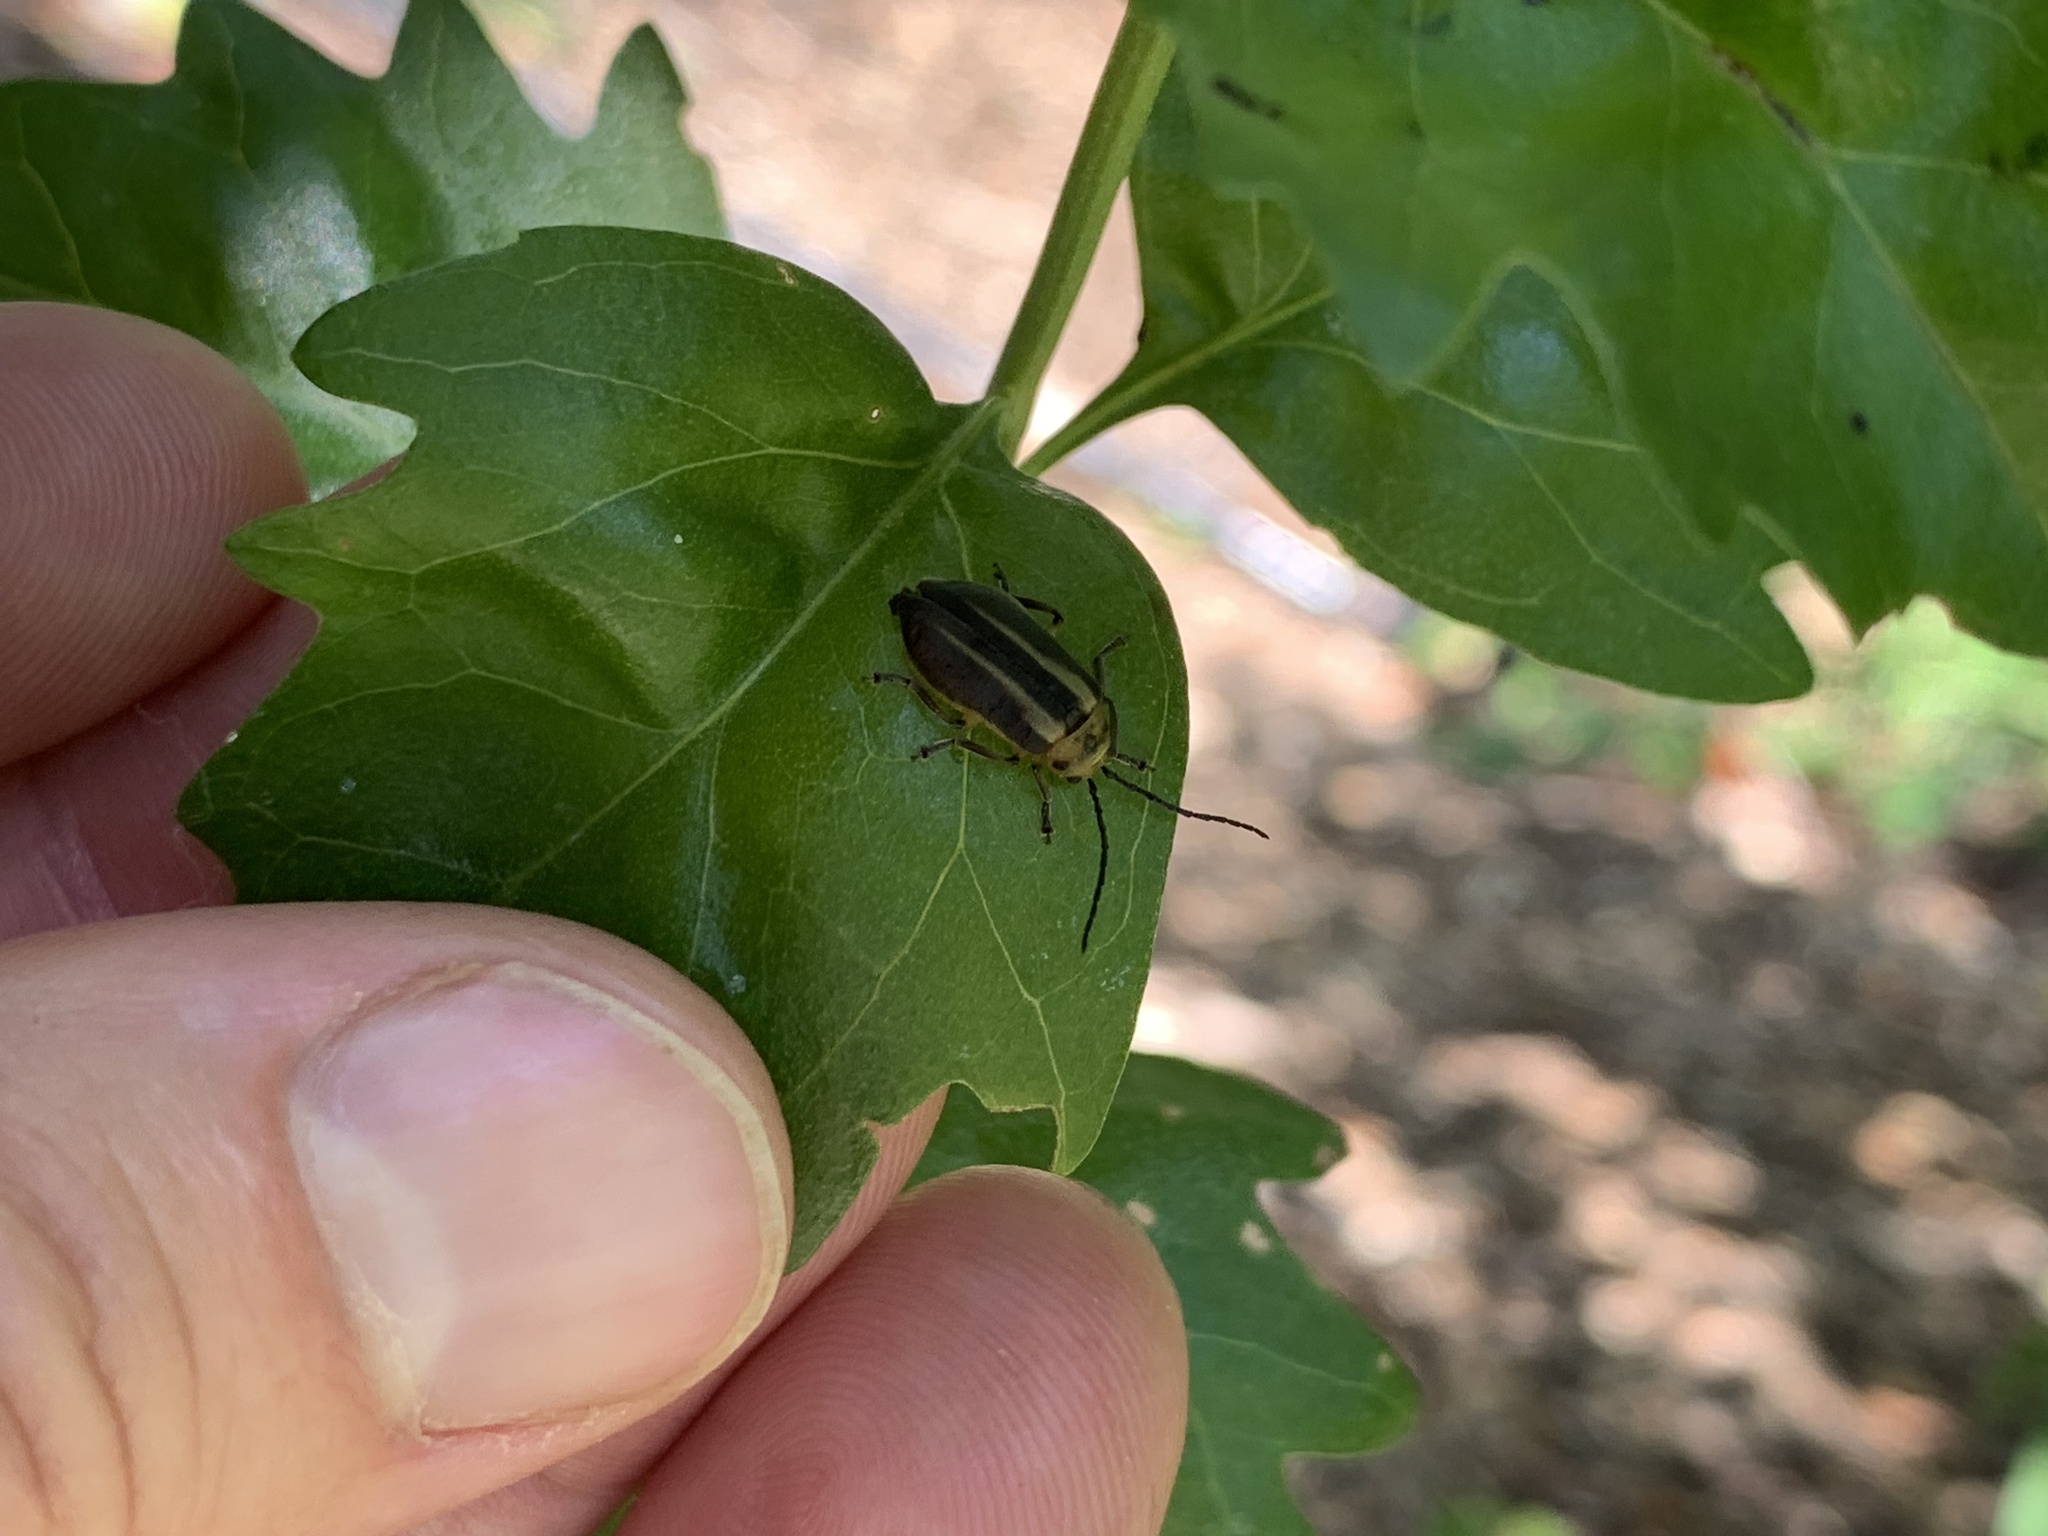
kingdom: Animalia
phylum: Arthropoda
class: Insecta
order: Coleoptera
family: Chrysomelidae
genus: Trirhabda
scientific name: Trirhabda bacharidis
